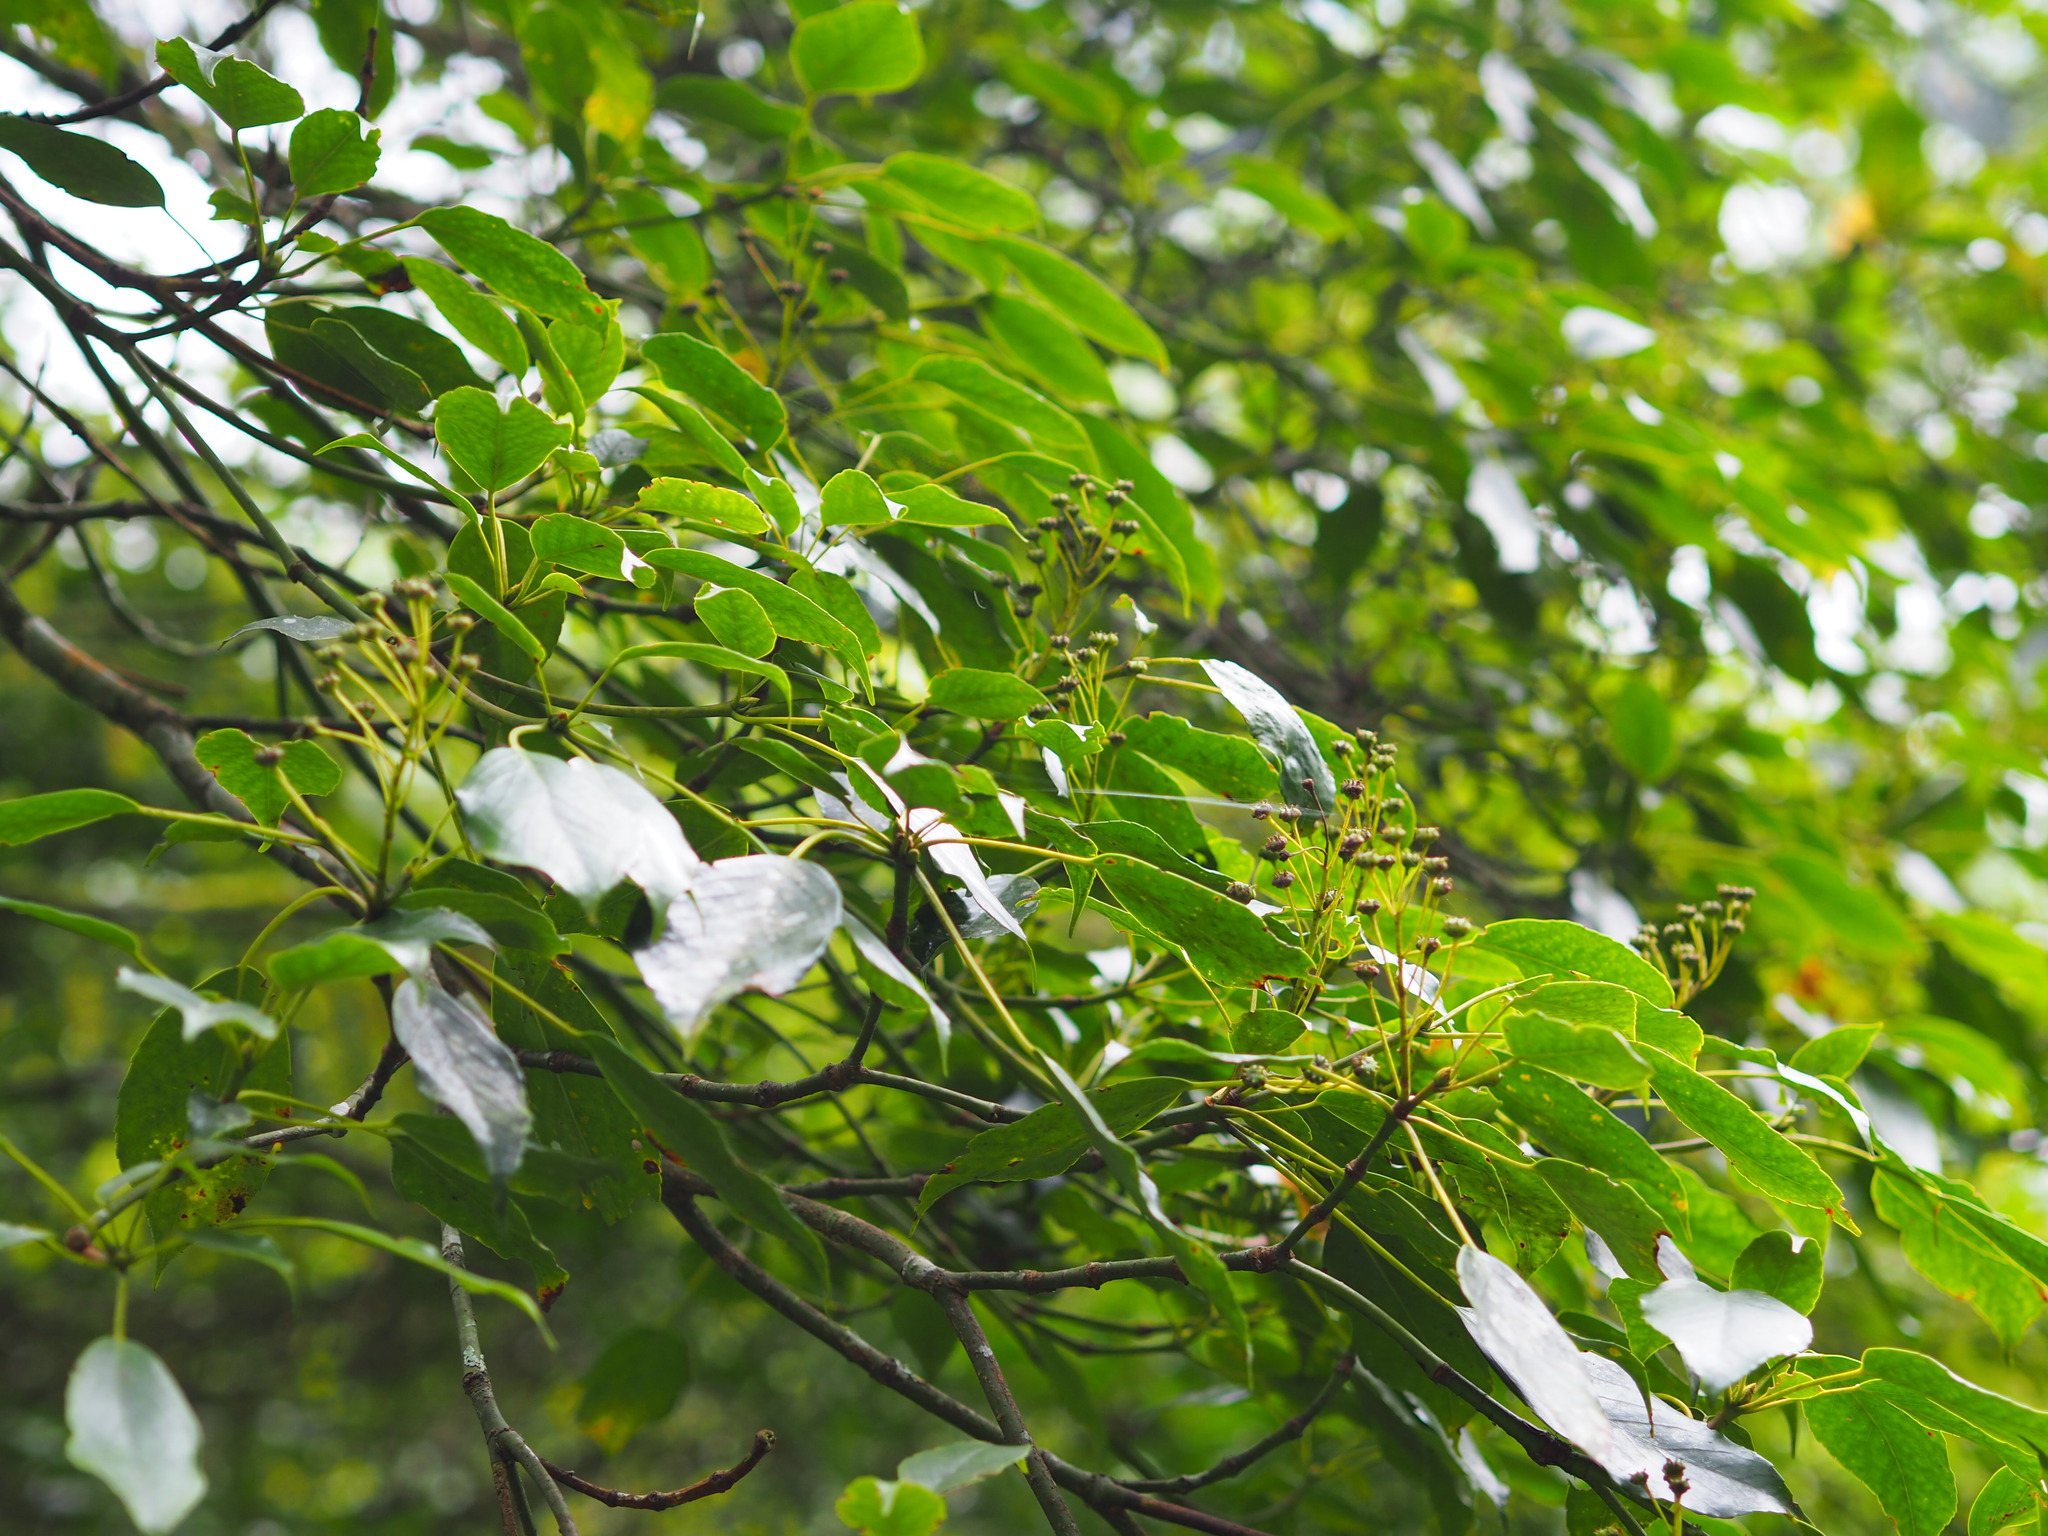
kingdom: Plantae
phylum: Tracheophyta
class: Magnoliopsida
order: Trochodendrales
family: Trochodendraceae
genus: Trochodendron
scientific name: Trochodendron aralioides
